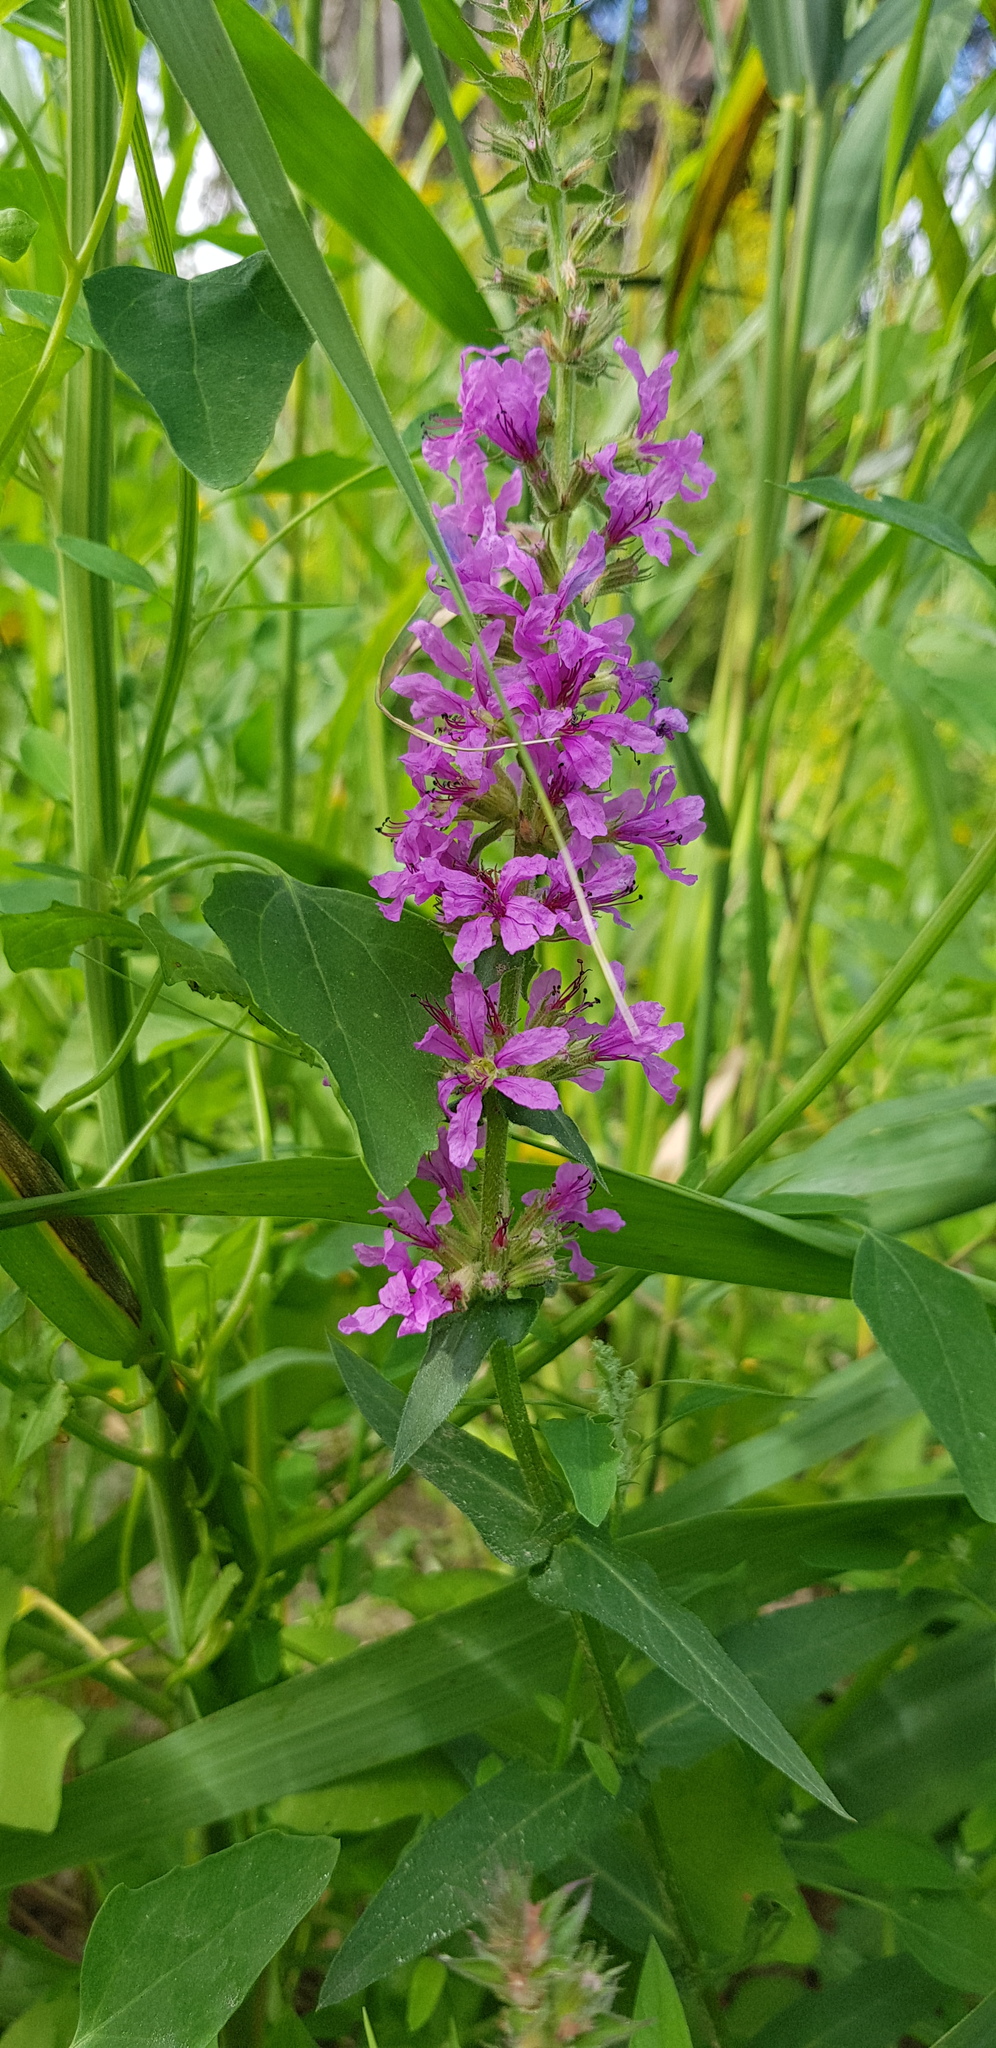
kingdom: Plantae
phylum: Tracheophyta
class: Magnoliopsida
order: Myrtales
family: Lythraceae
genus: Lythrum
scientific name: Lythrum salicaria
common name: Purple loosestrife
